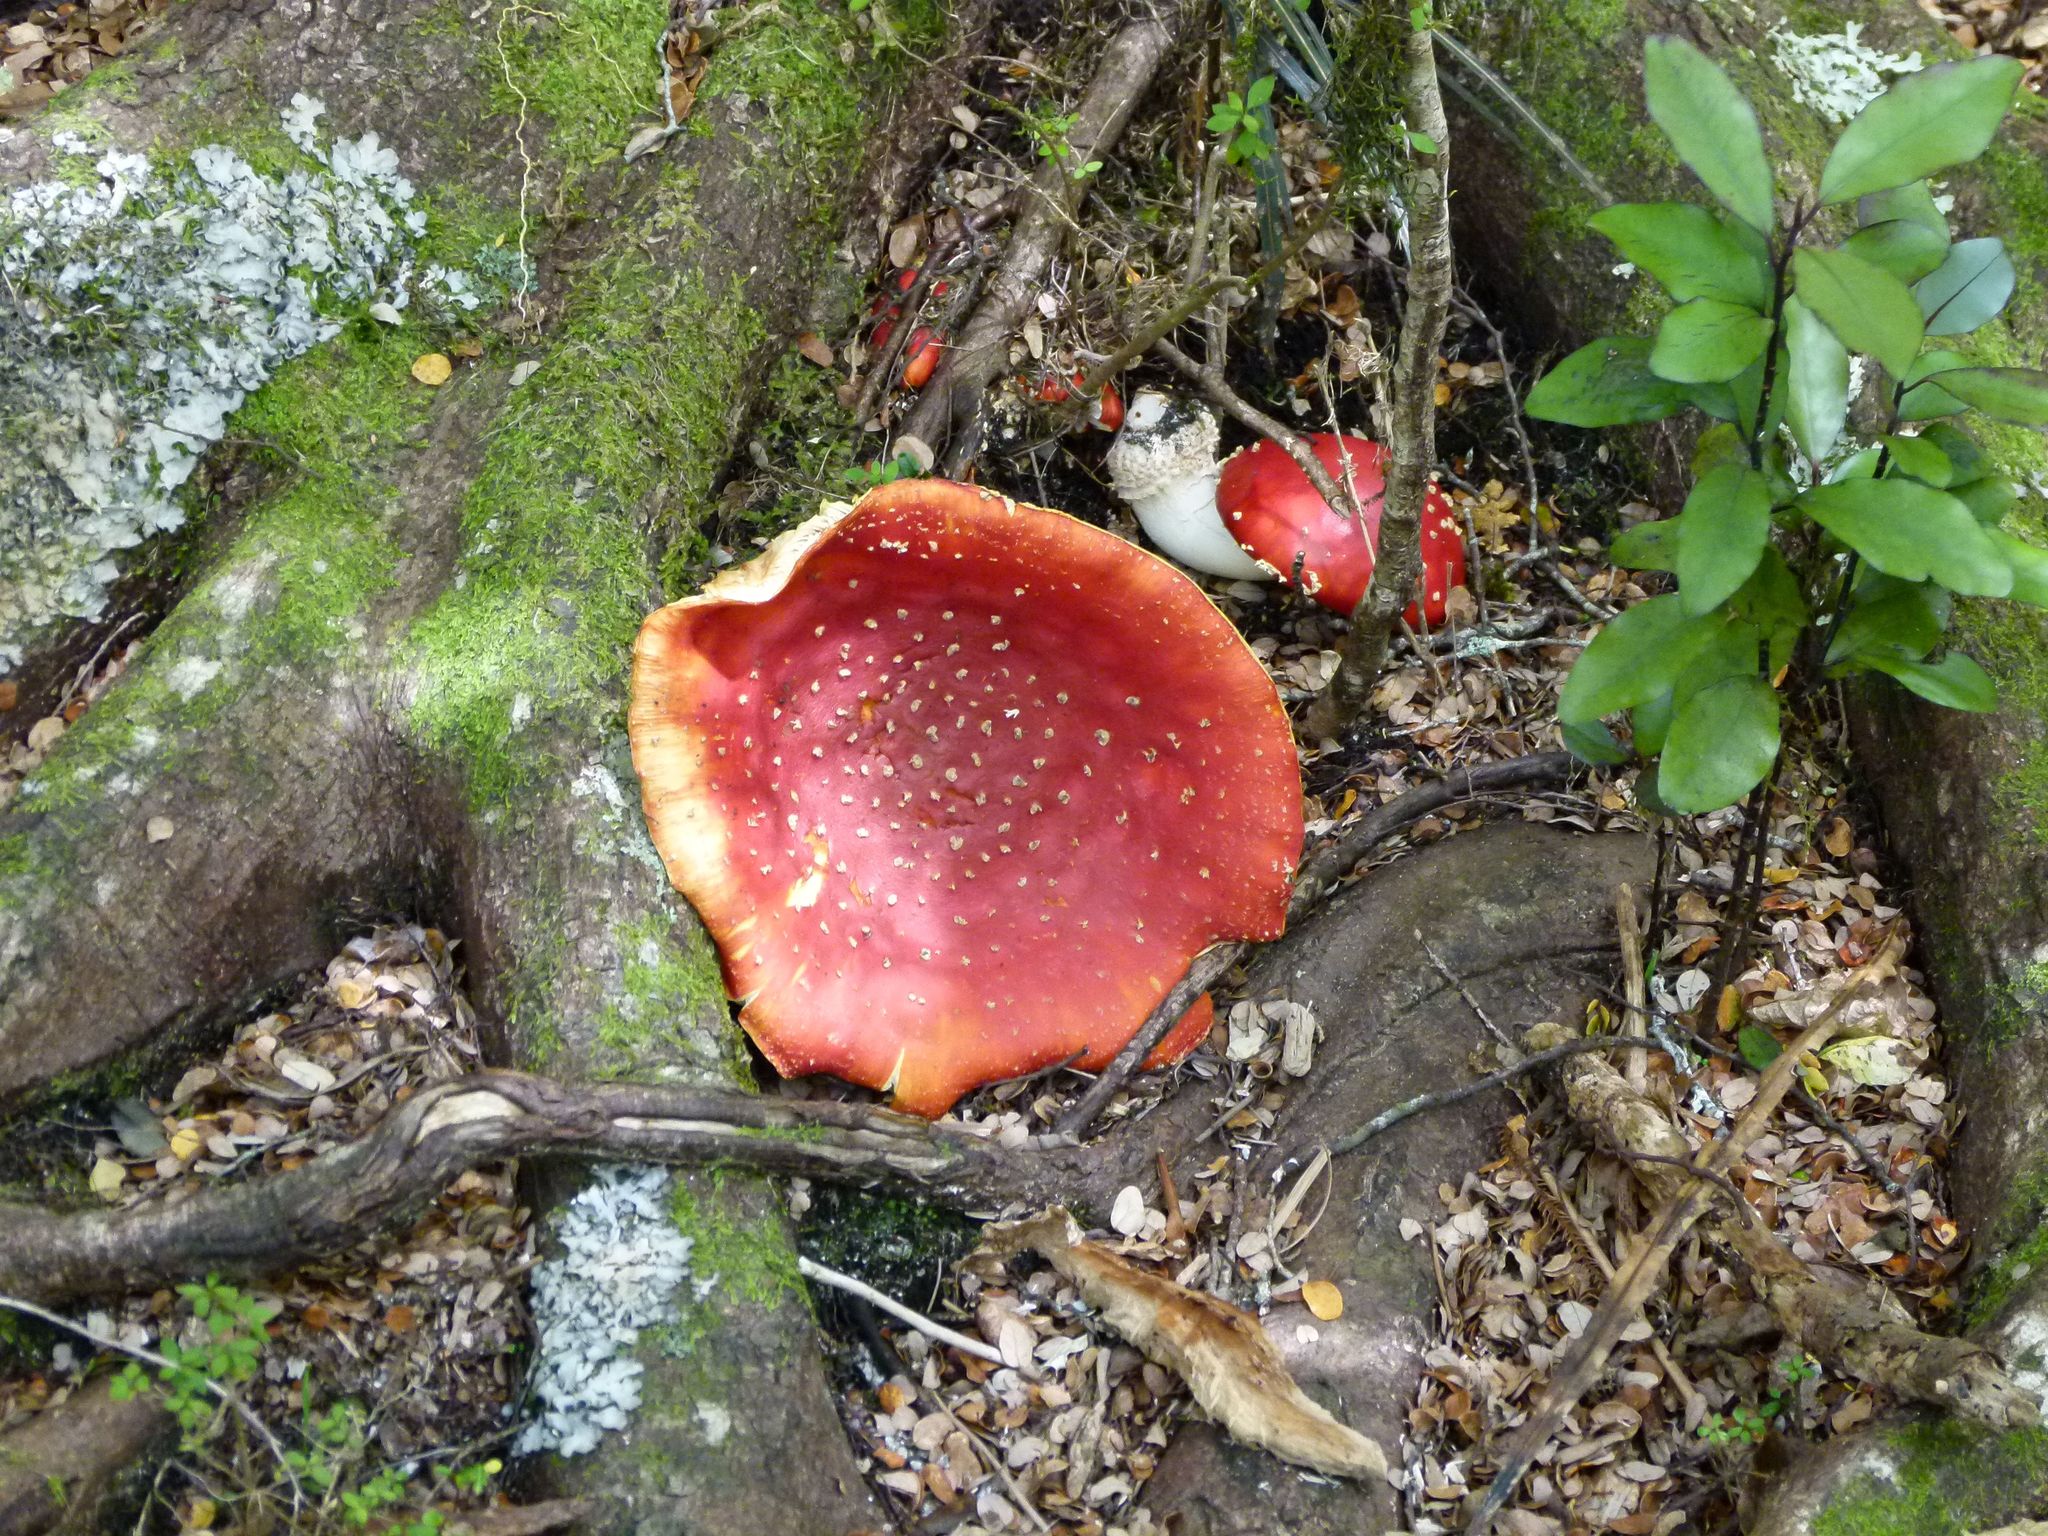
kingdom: Fungi
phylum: Basidiomycota
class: Agaricomycetes
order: Agaricales
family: Amanitaceae
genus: Amanita
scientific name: Amanita muscaria
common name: Fly agaric
